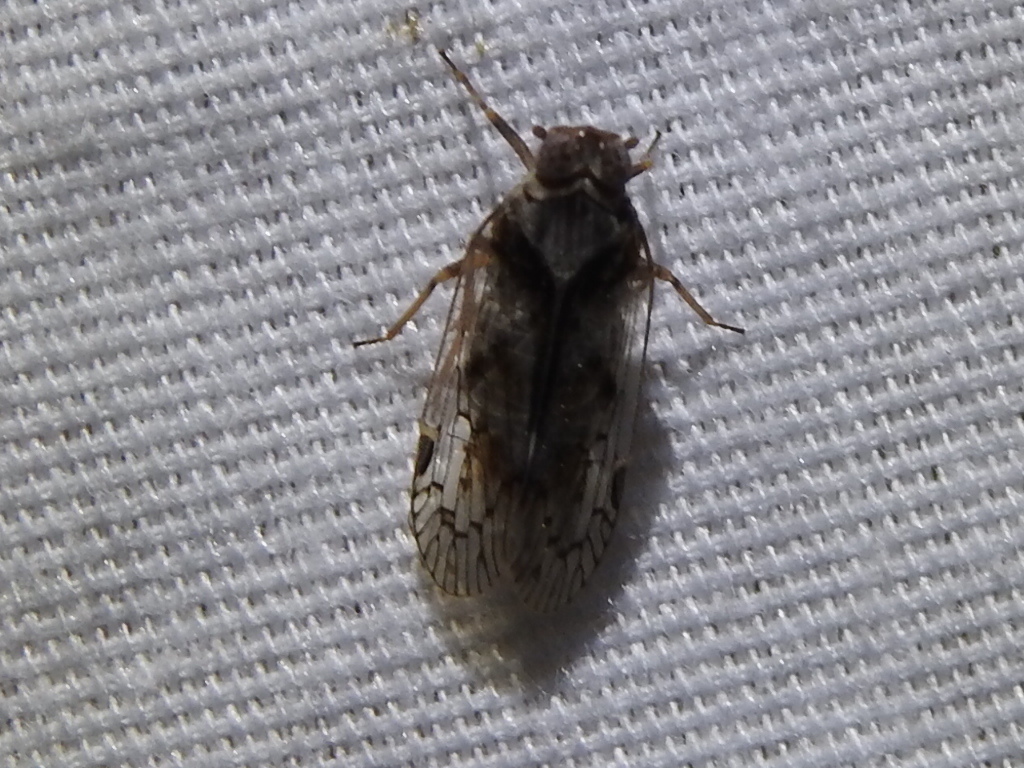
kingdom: Animalia
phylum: Arthropoda
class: Insecta
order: Hemiptera
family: Cixiidae
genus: Melanoliarus
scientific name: Melanoliarus aridus
